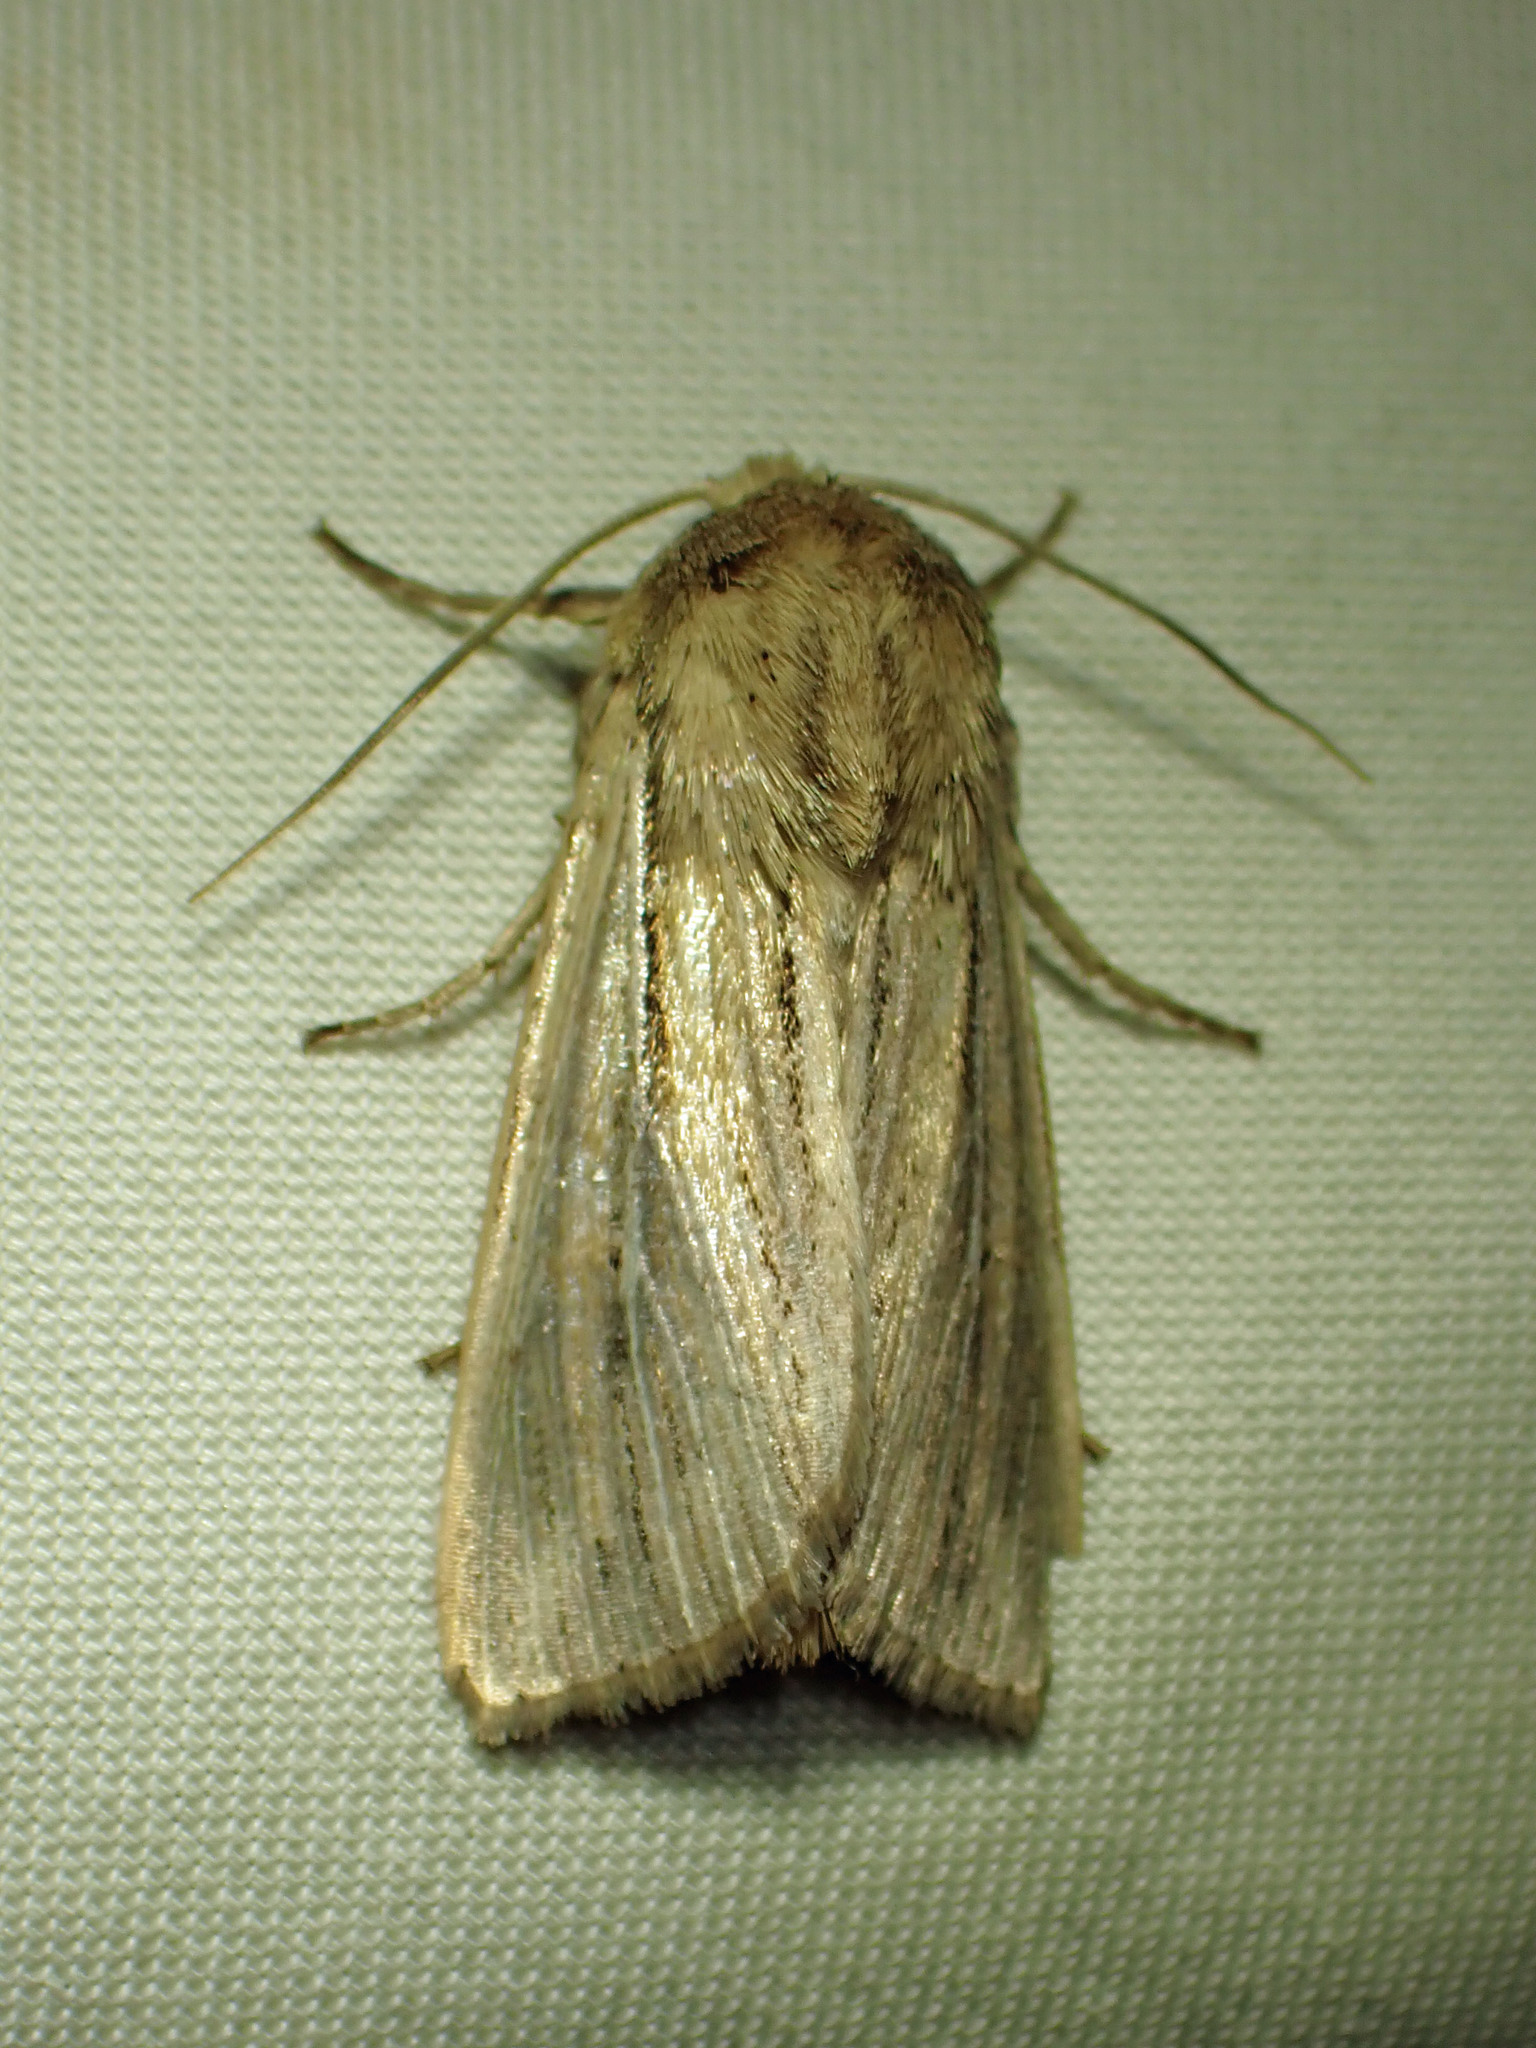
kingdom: Animalia
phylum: Arthropoda
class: Insecta
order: Lepidoptera
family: Noctuidae
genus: Leucania
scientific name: Leucania commoides
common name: Two-lined wainscot
